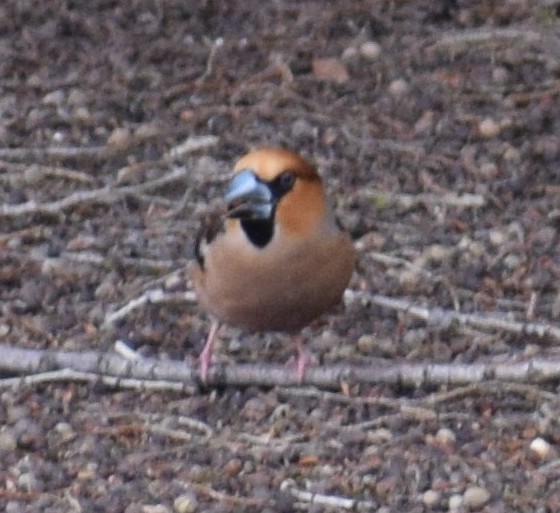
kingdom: Animalia
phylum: Chordata
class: Aves
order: Passeriformes
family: Fringillidae
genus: Coccothraustes
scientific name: Coccothraustes coccothraustes
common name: Hawfinch
